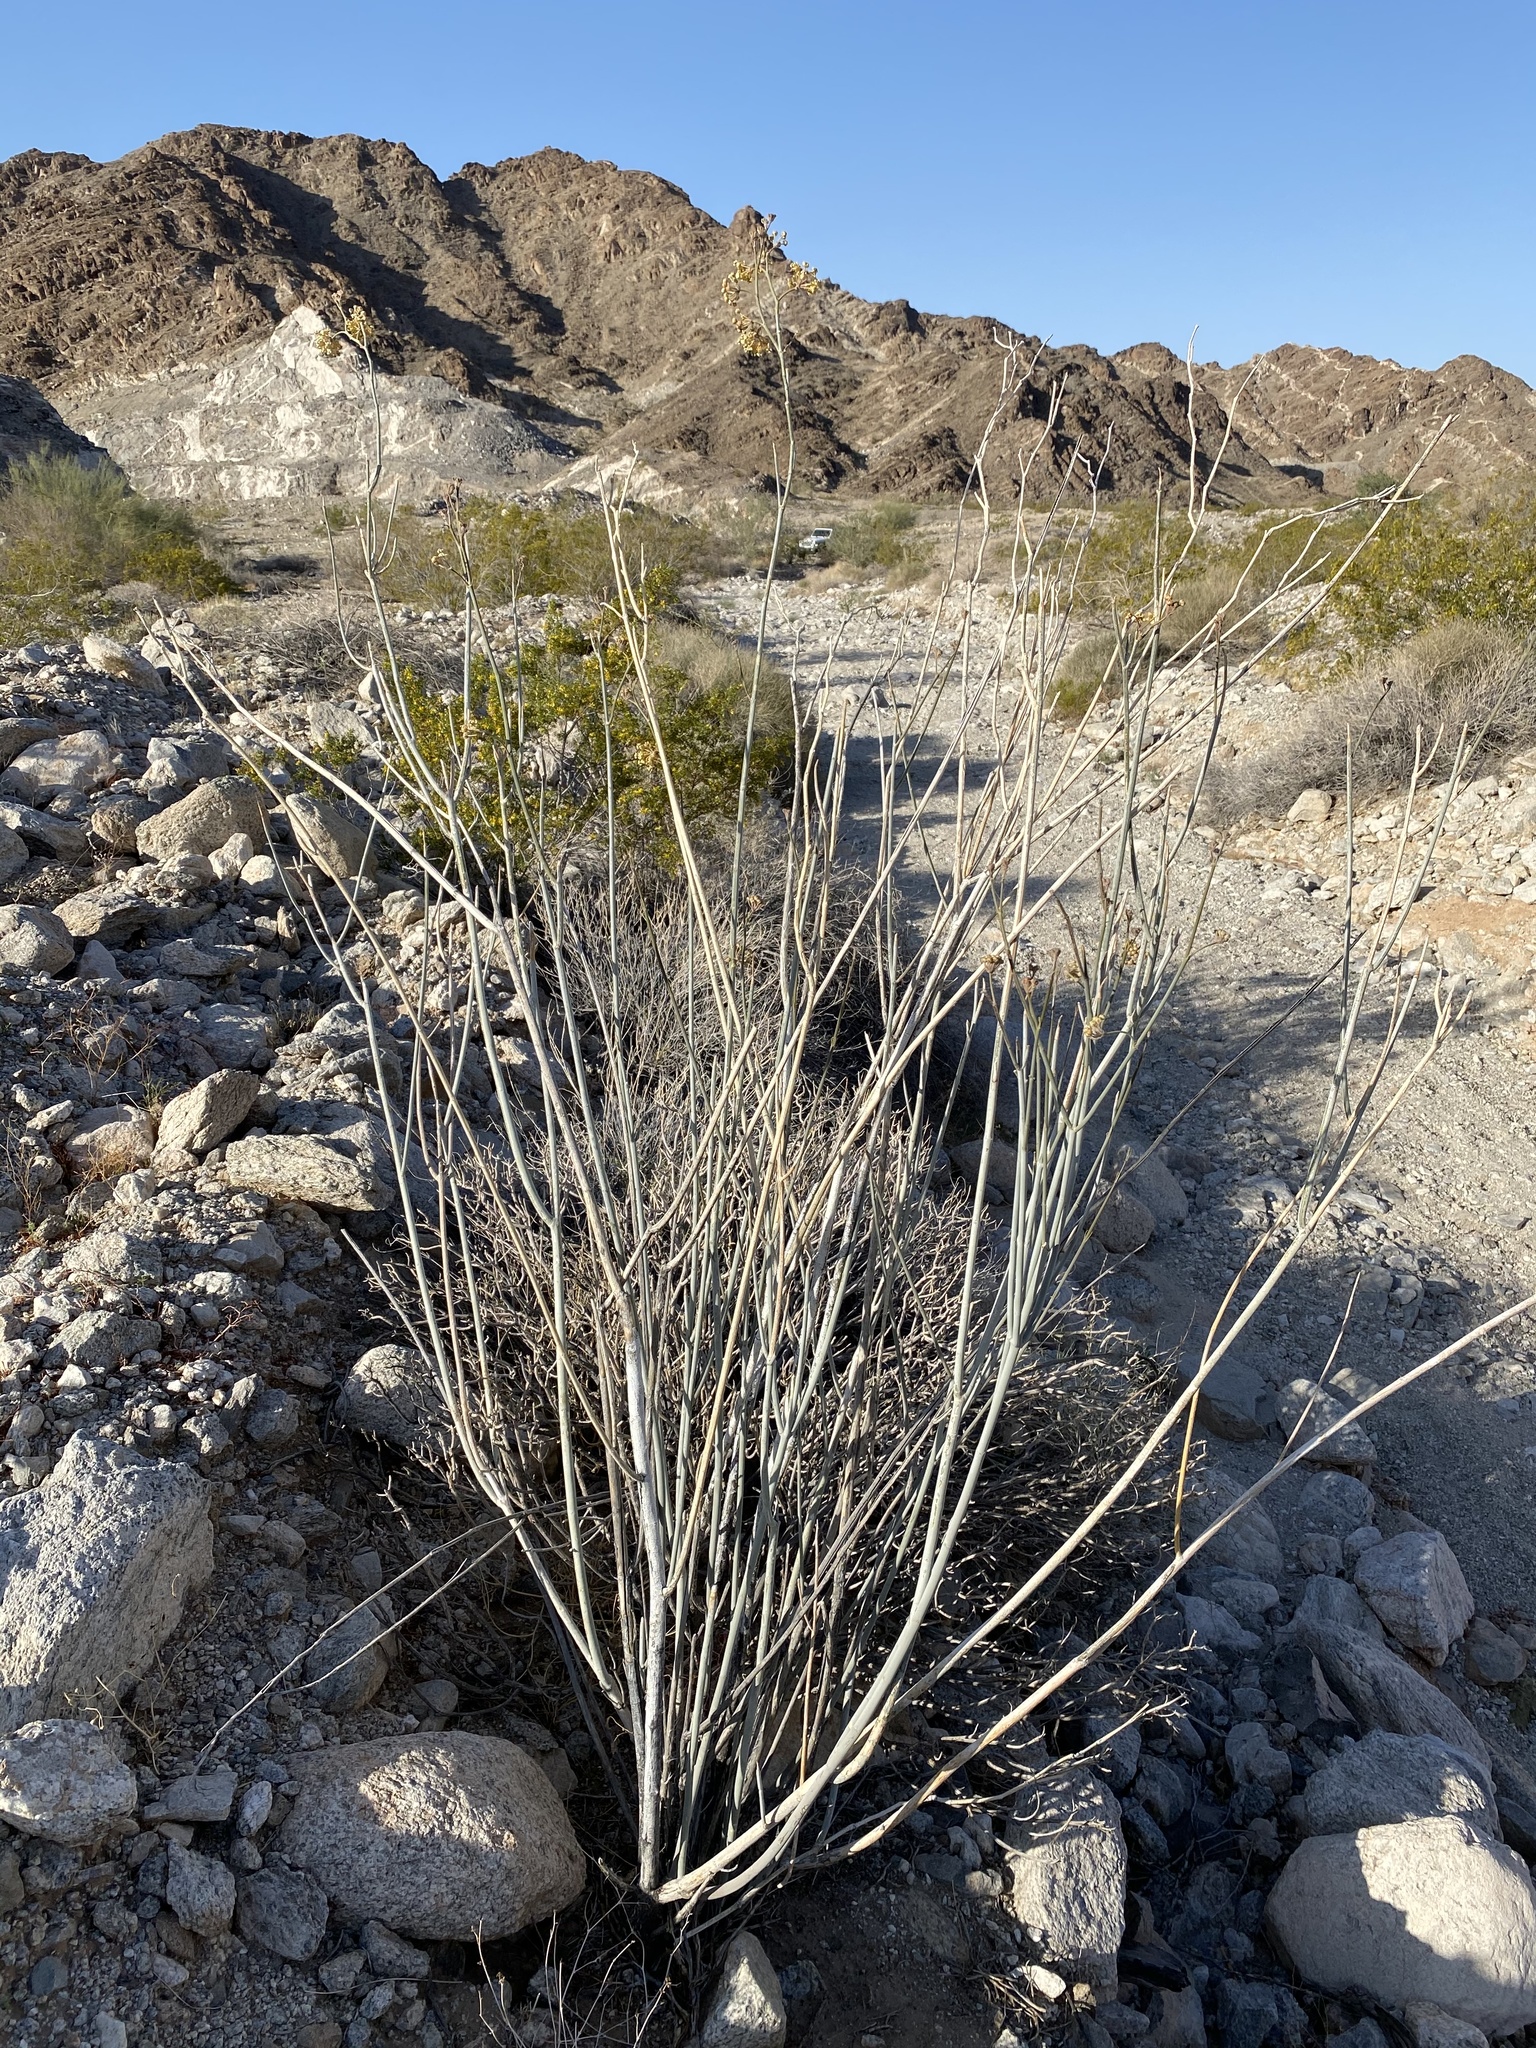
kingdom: Plantae
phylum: Tracheophyta
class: Magnoliopsida
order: Gentianales
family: Apocynaceae
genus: Asclepias
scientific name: Asclepias albicans
